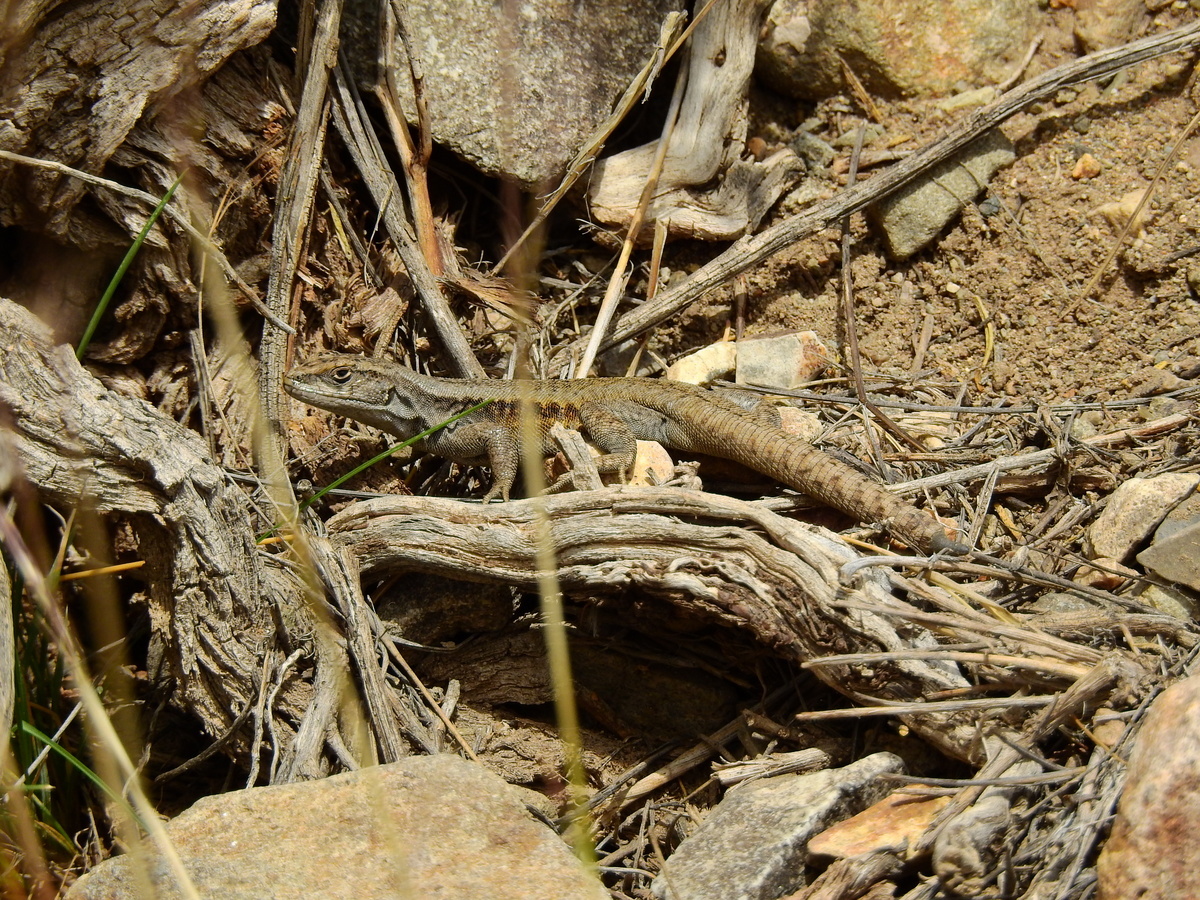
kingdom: Animalia
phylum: Chordata
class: Squamata
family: Liolaemidae
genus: Liolaemus
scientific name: Liolaemus parvus
